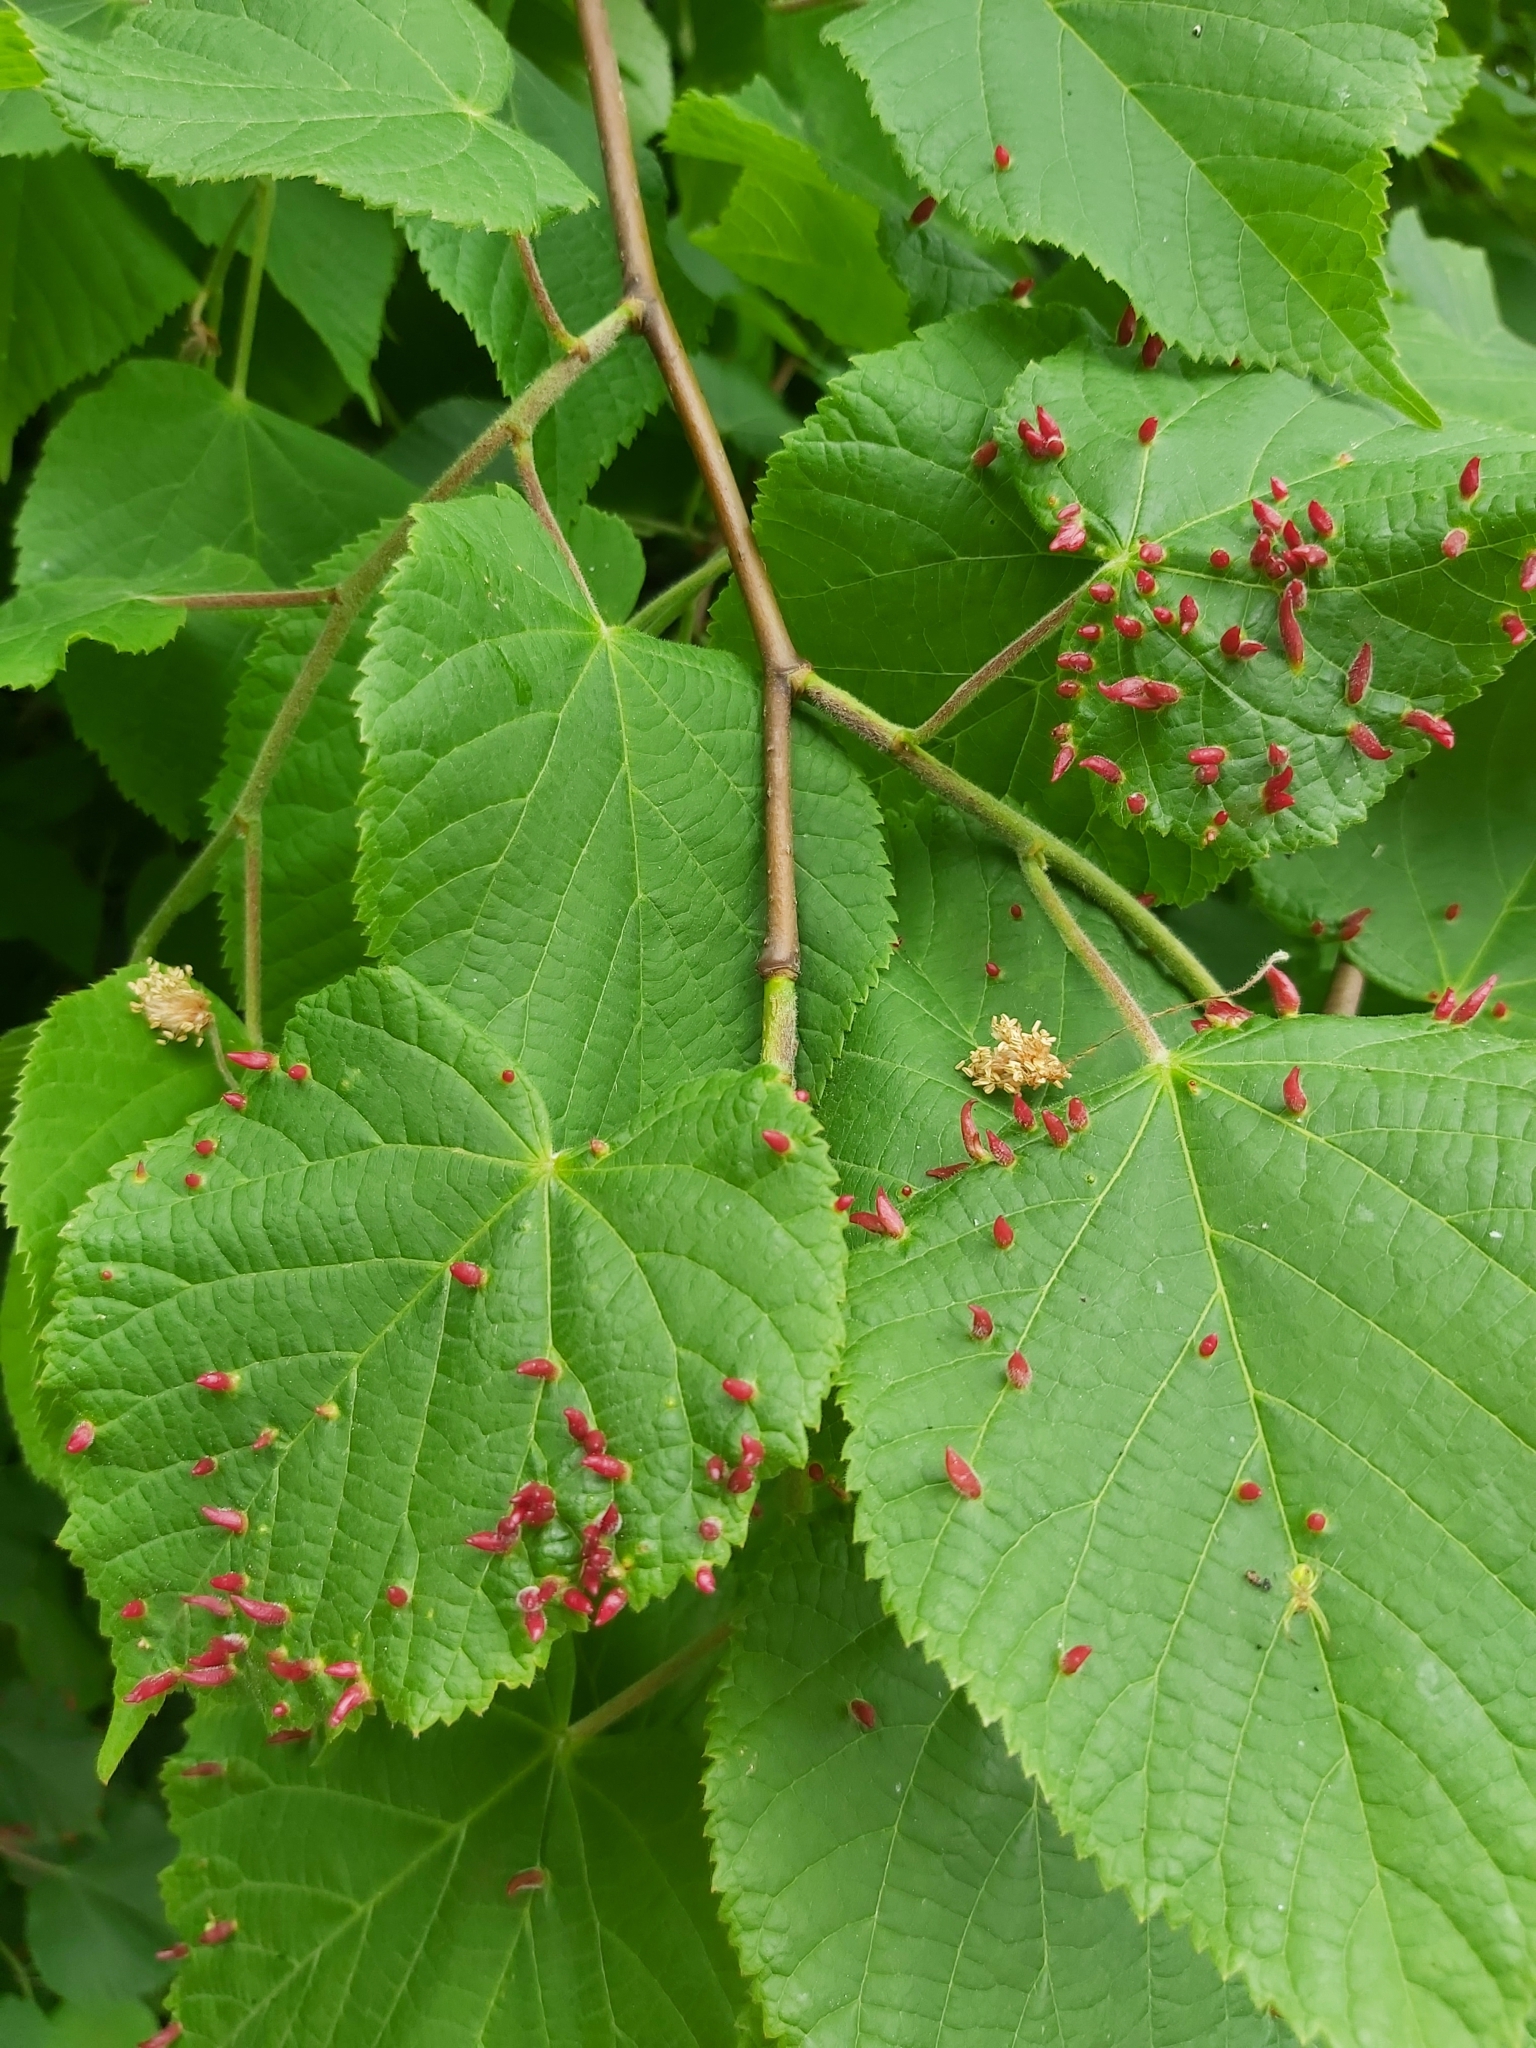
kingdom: Animalia
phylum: Arthropoda
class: Arachnida
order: Trombidiformes
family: Eriophyidae
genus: Eriophyes
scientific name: Eriophyes tiliae
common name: Red nail gall mite
